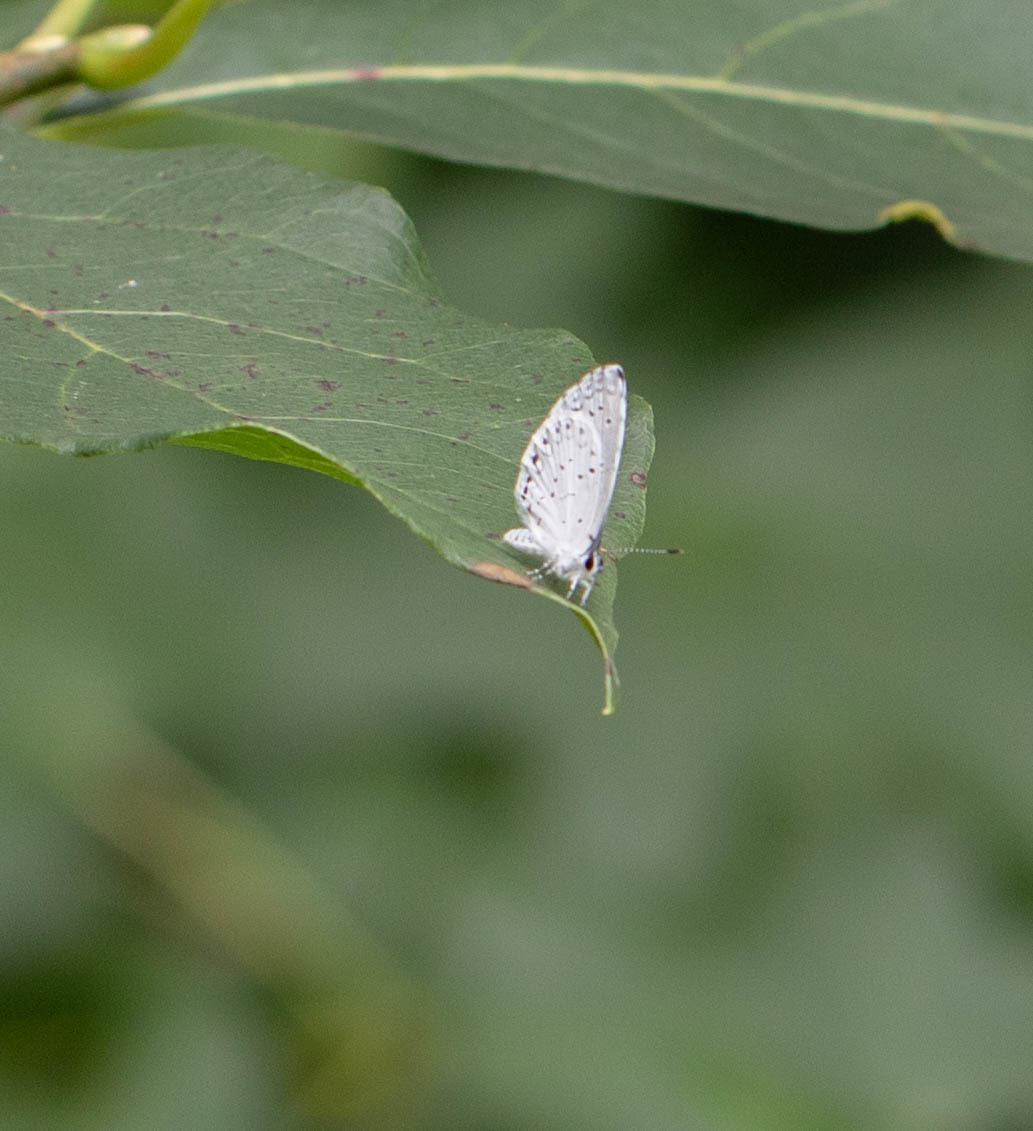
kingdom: Animalia
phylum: Arthropoda
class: Insecta
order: Lepidoptera
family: Lycaenidae
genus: Cyaniris
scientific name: Cyaniris neglecta
